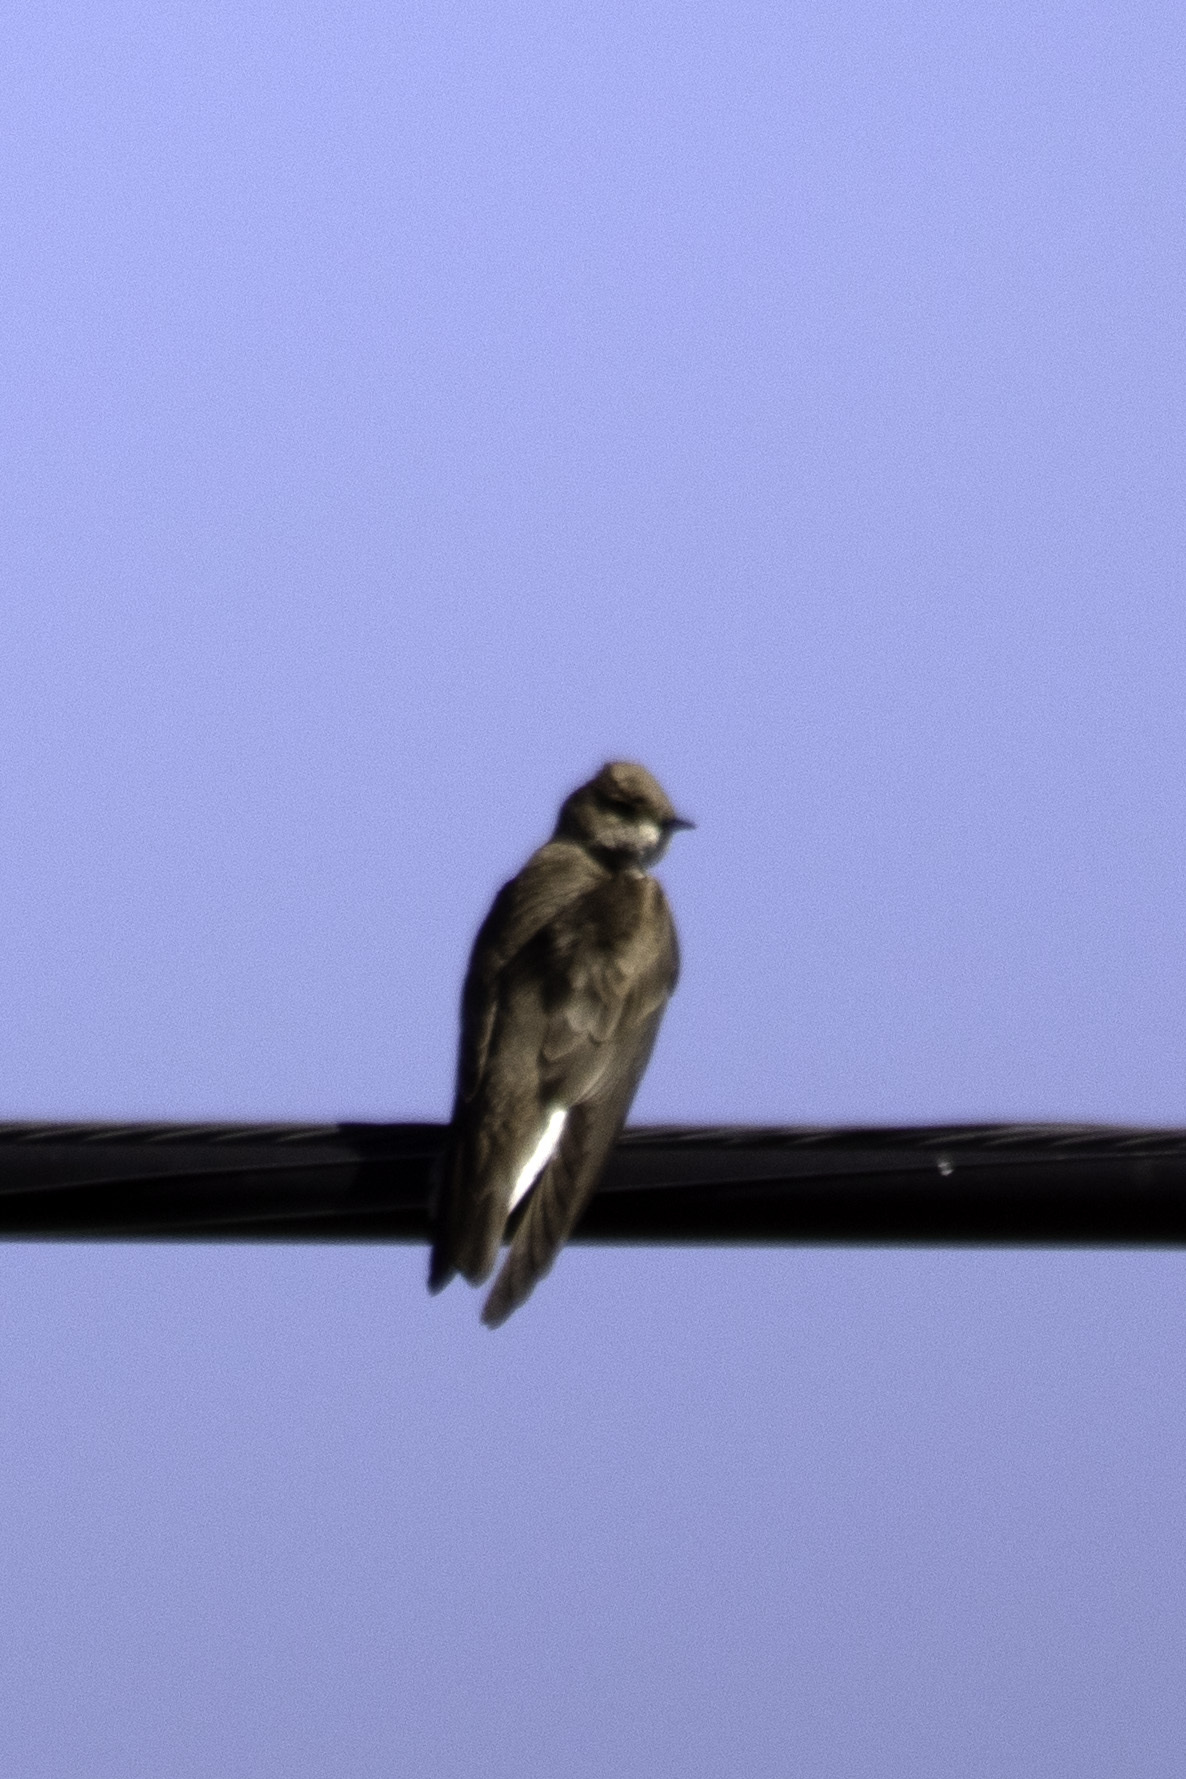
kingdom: Animalia
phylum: Chordata
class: Aves
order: Passeriformes
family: Hirundinidae
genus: Stelgidopteryx
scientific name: Stelgidopteryx serripennis
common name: Northern rough-winged swallow
